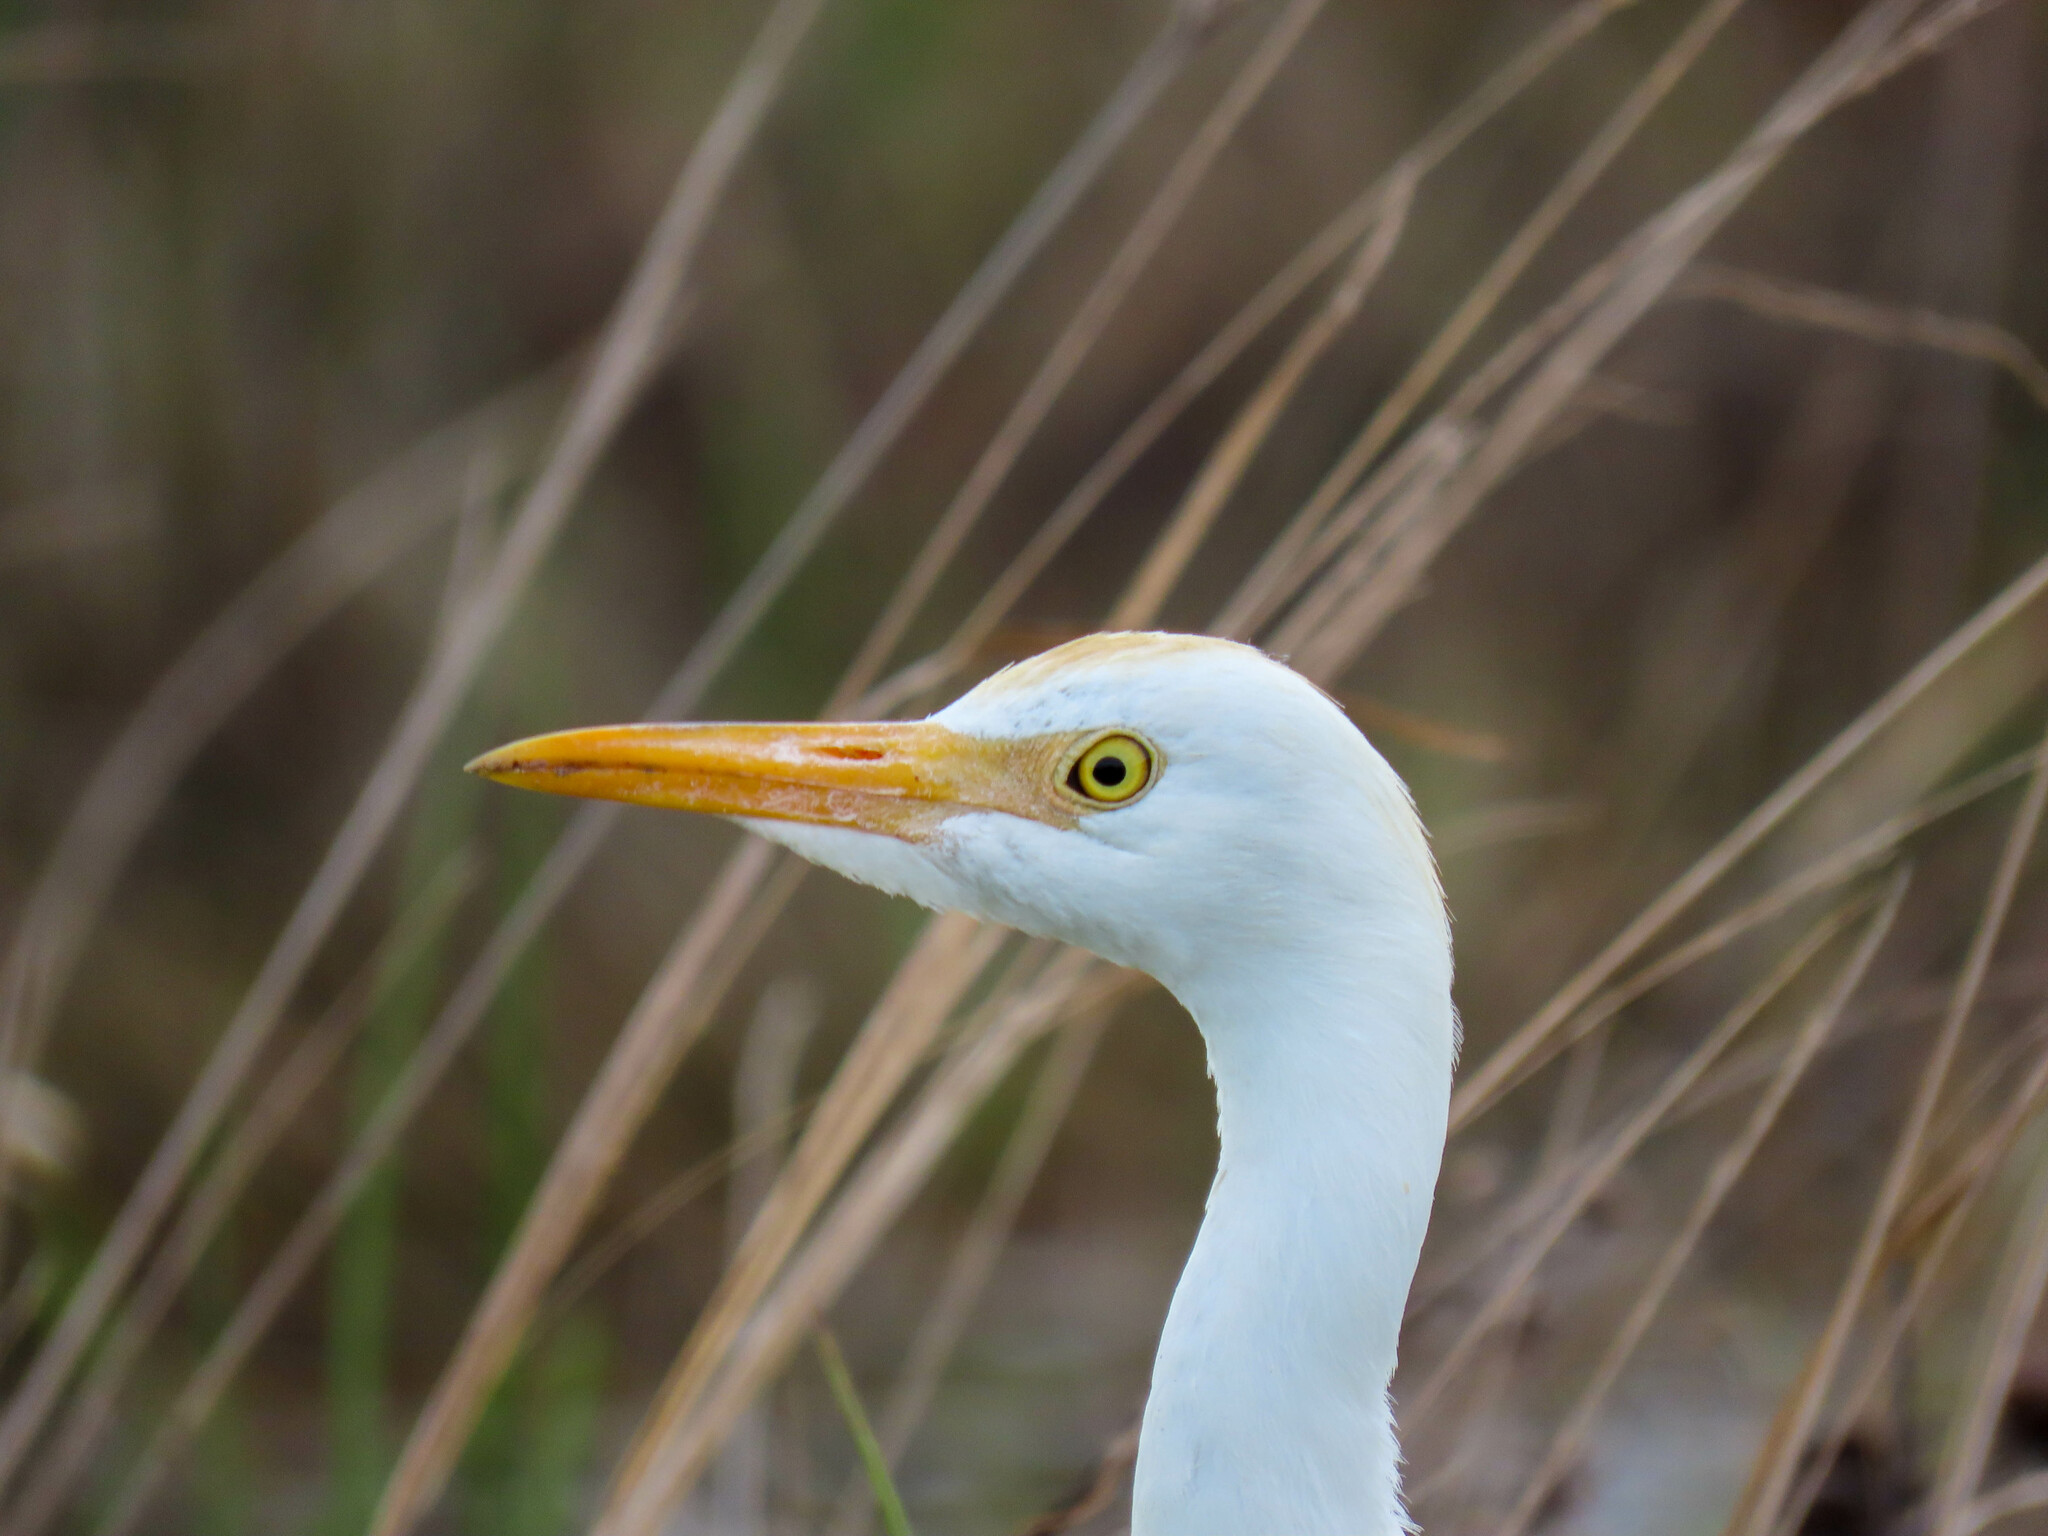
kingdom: Animalia
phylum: Chordata
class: Aves
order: Pelecaniformes
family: Ardeidae
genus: Bubulcus
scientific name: Bubulcus ibis
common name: Cattle egret
